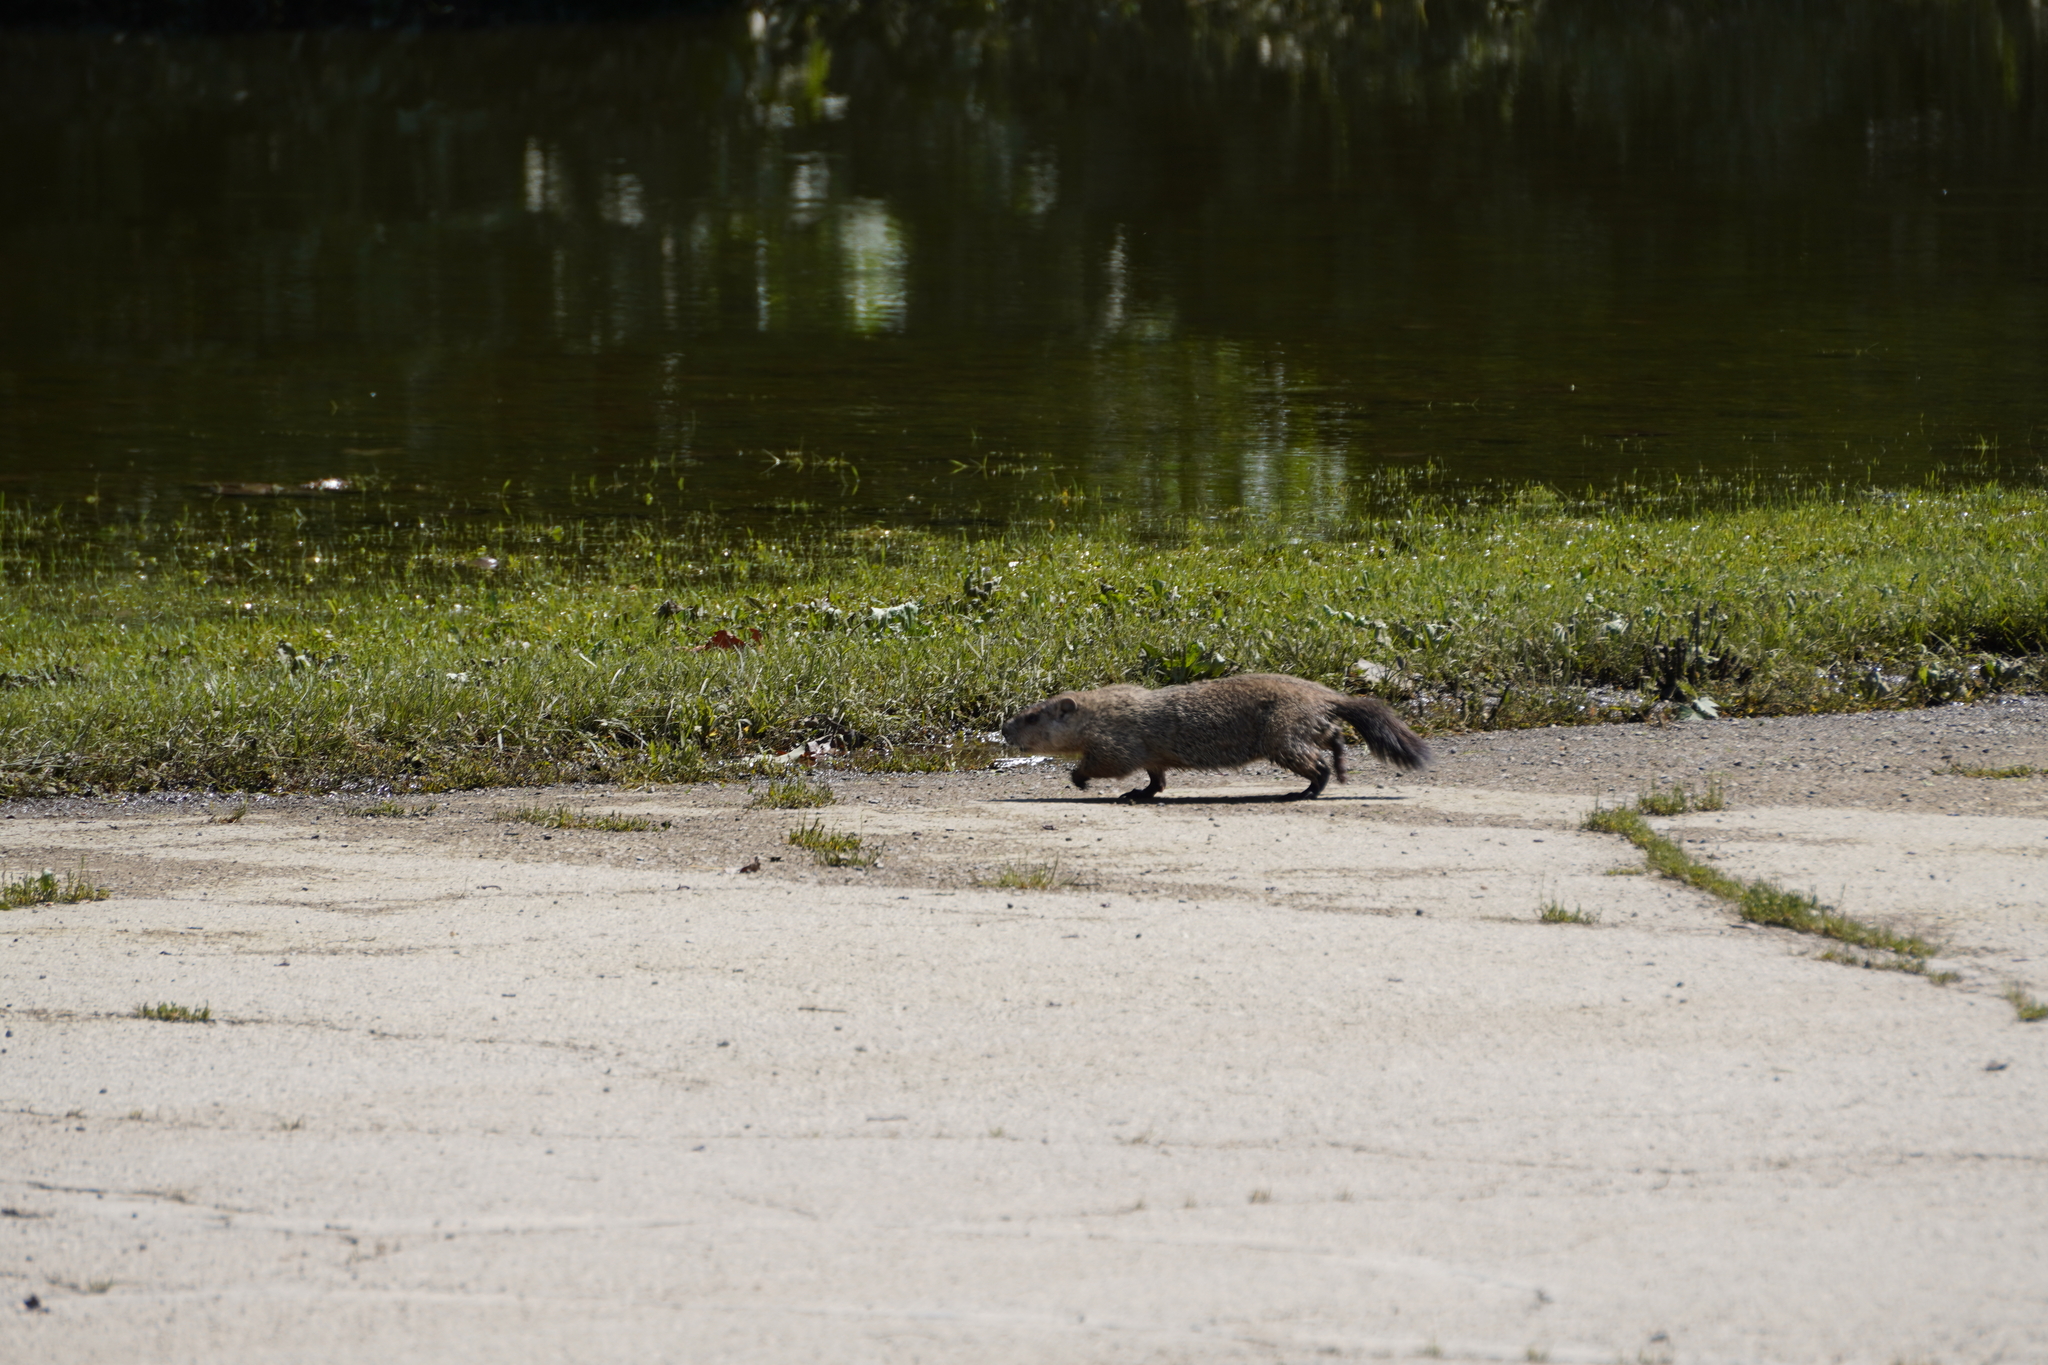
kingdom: Animalia
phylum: Chordata
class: Mammalia
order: Rodentia
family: Sciuridae
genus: Marmota
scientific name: Marmota monax
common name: Groundhog
